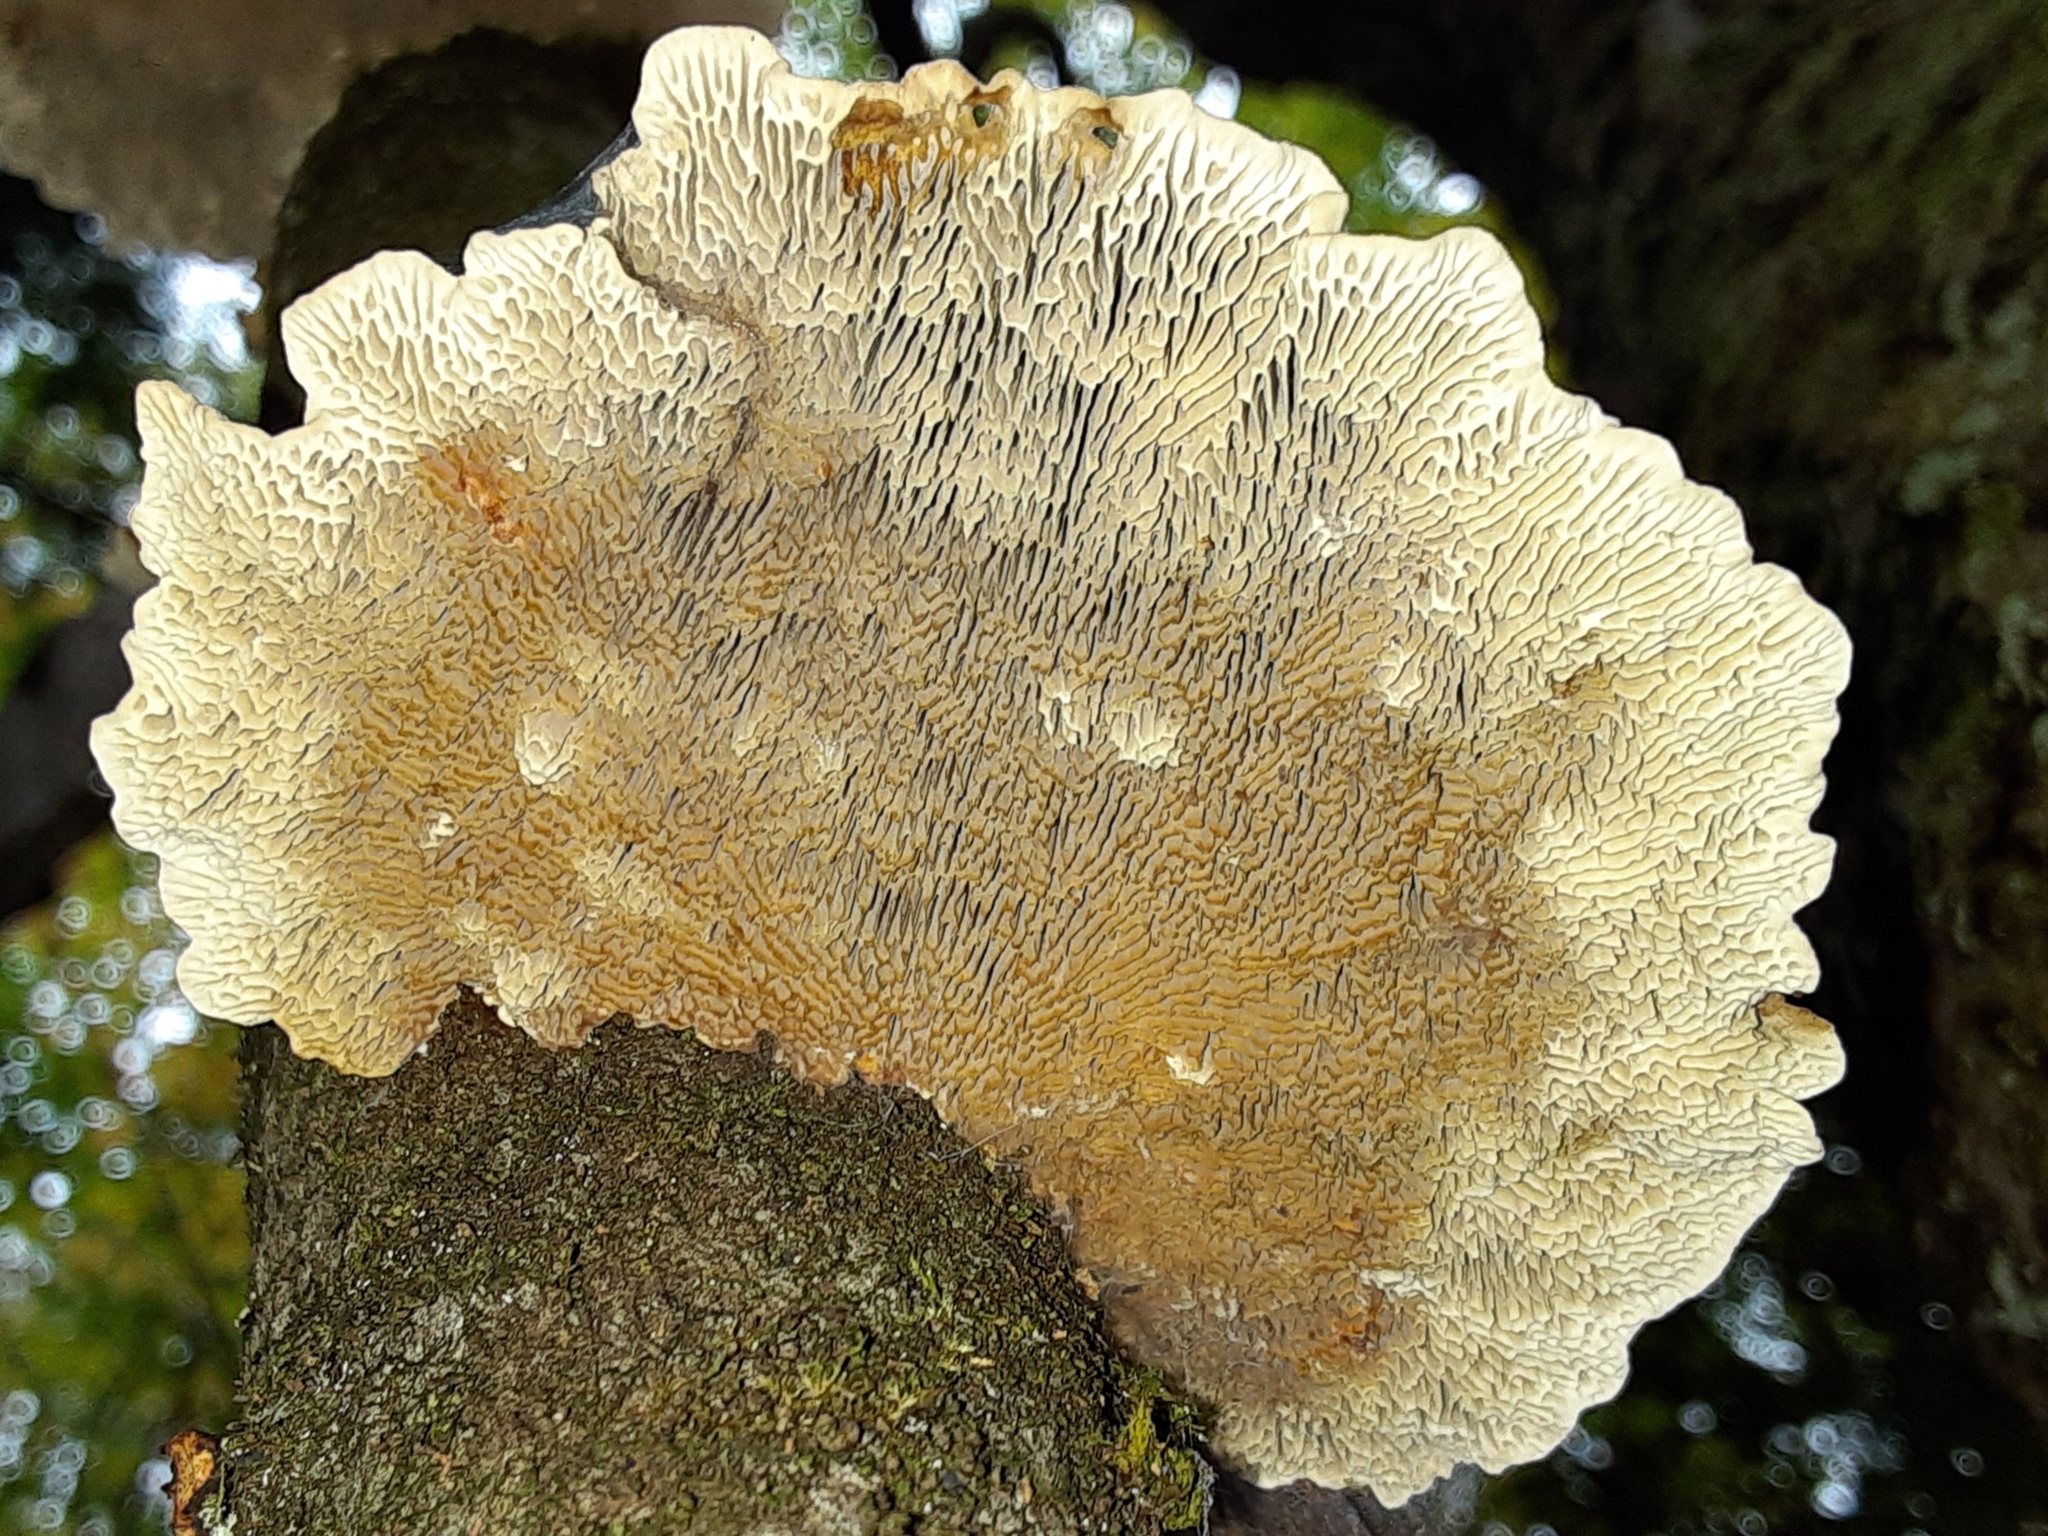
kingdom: Fungi
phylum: Basidiomycota
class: Agaricomycetes
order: Polyporales
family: Polyporaceae
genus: Daedaleopsis
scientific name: Daedaleopsis confragosa
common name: Blushing bracket
